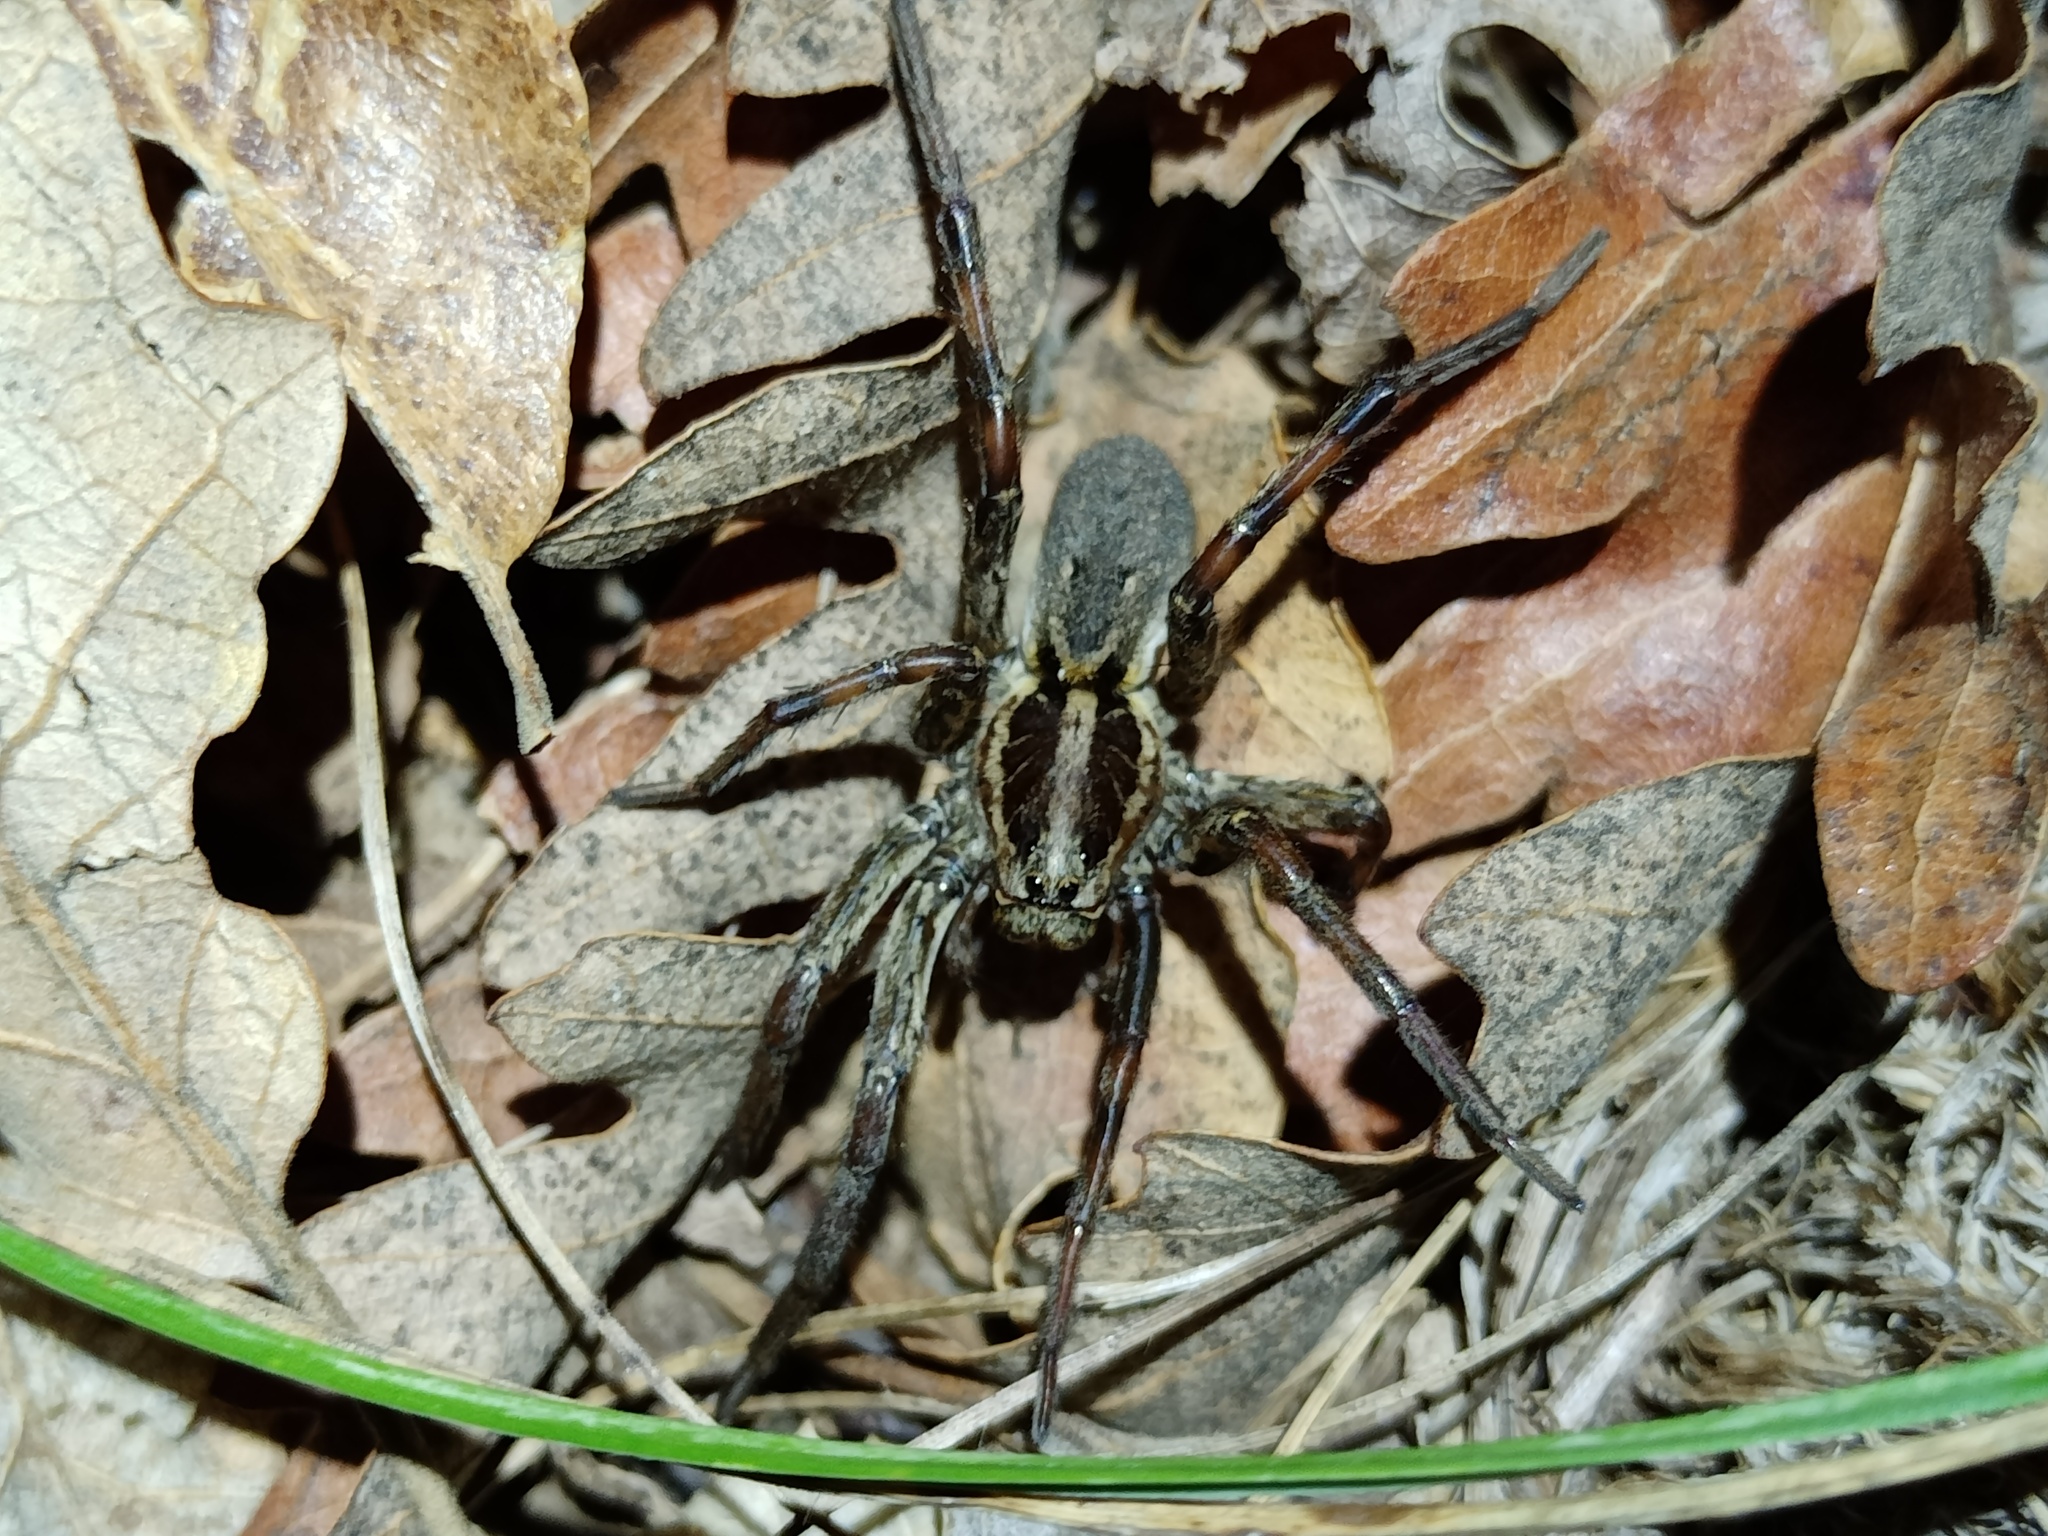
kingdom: Animalia
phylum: Arthropoda
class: Arachnida
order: Araneae
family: Lycosidae
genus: Hogna
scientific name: Hogna radiata
